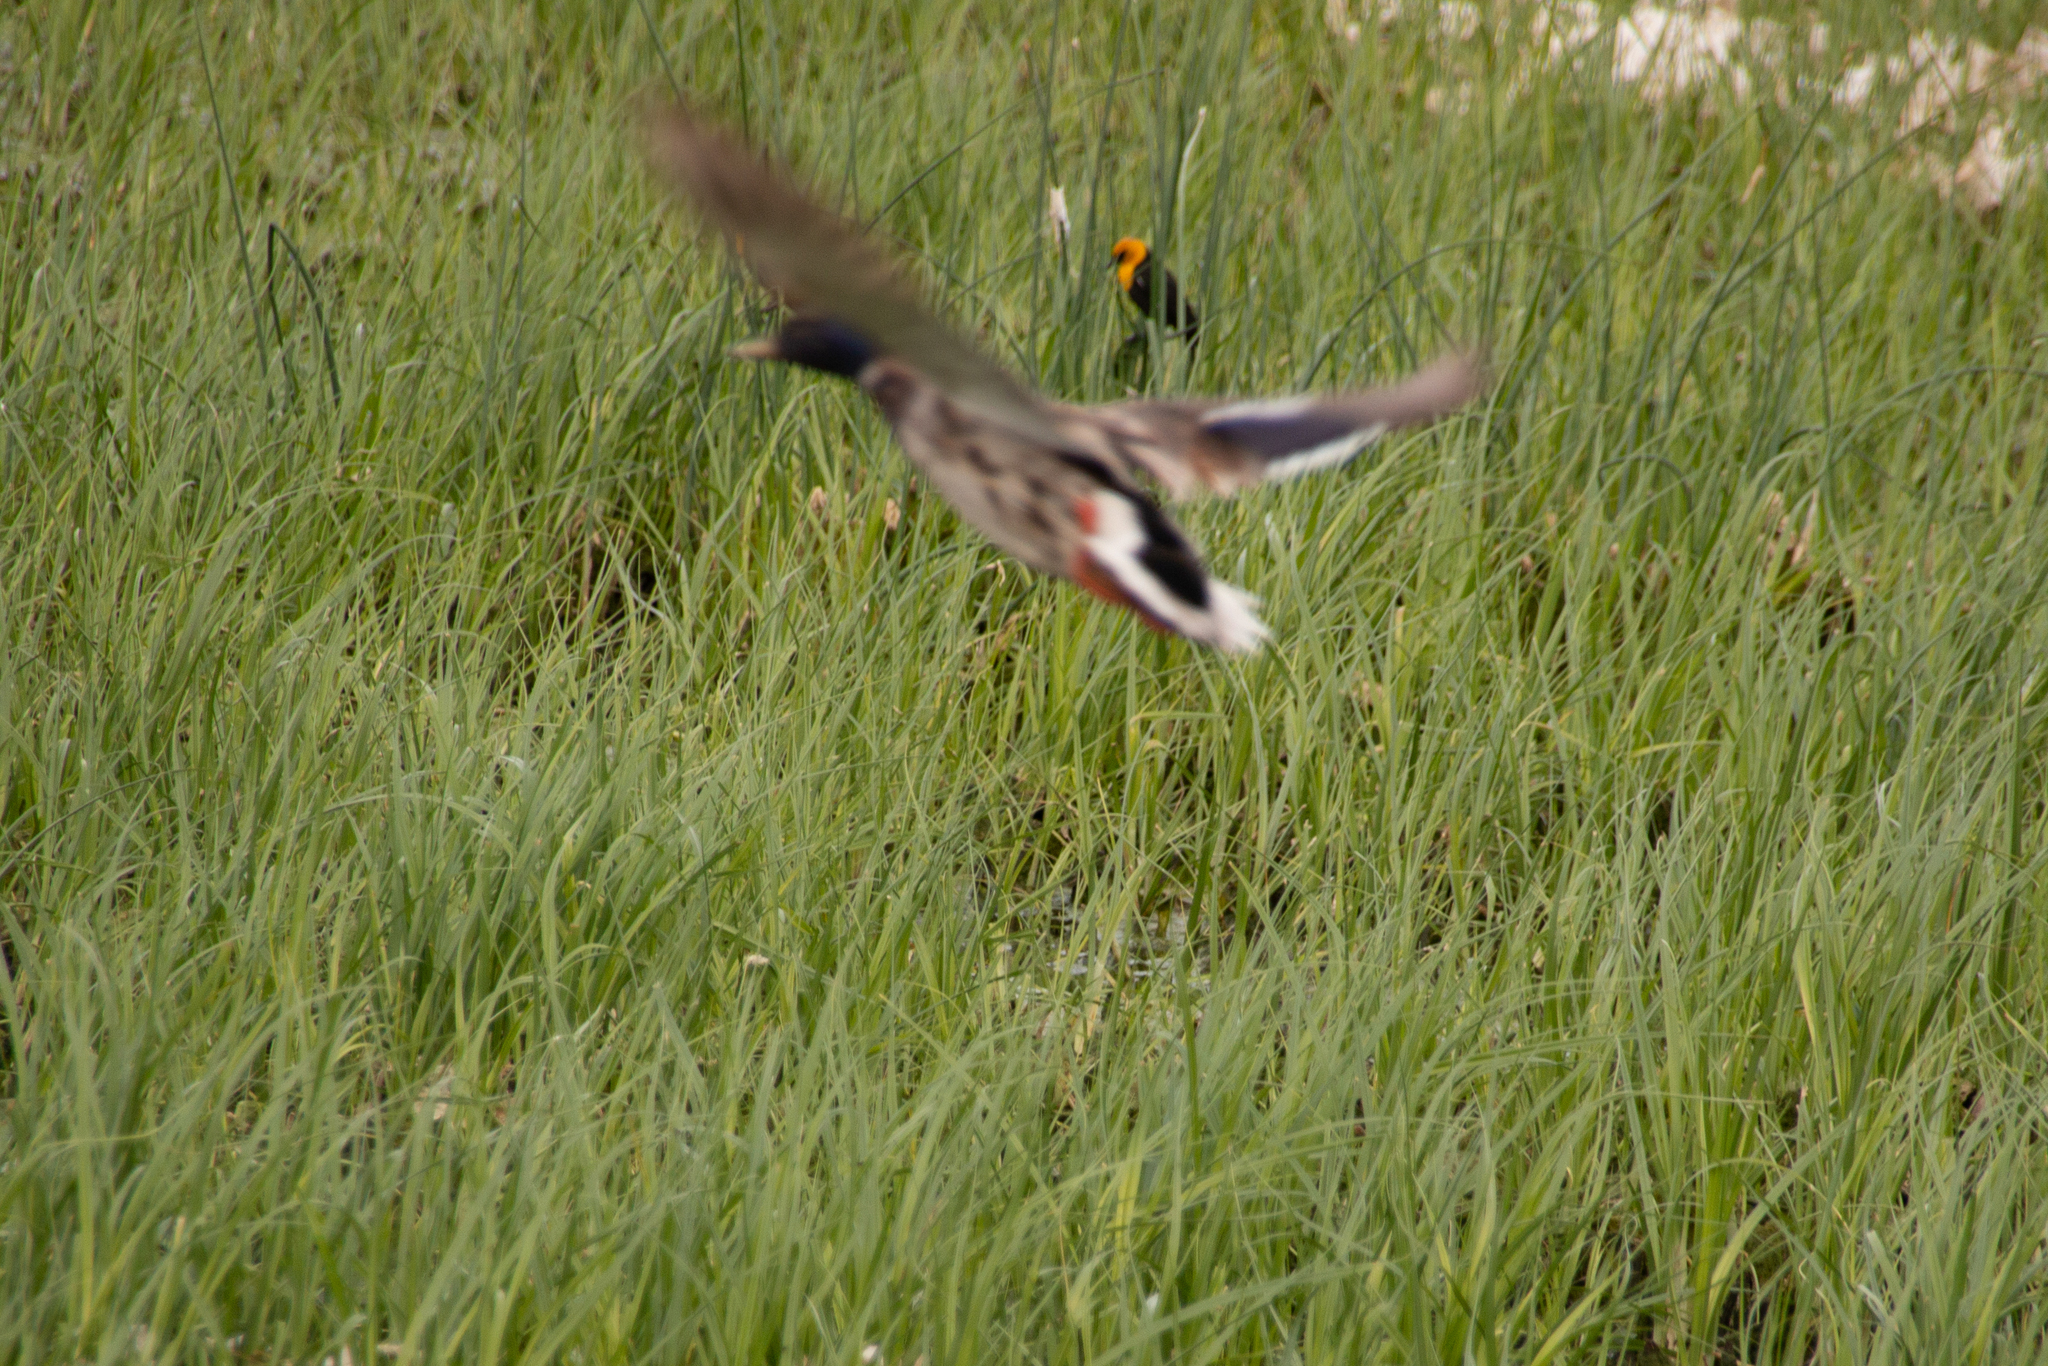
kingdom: Animalia
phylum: Chordata
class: Aves
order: Passeriformes
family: Icteridae
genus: Xanthocephalus
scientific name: Xanthocephalus xanthocephalus
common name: Yellow-headed blackbird
